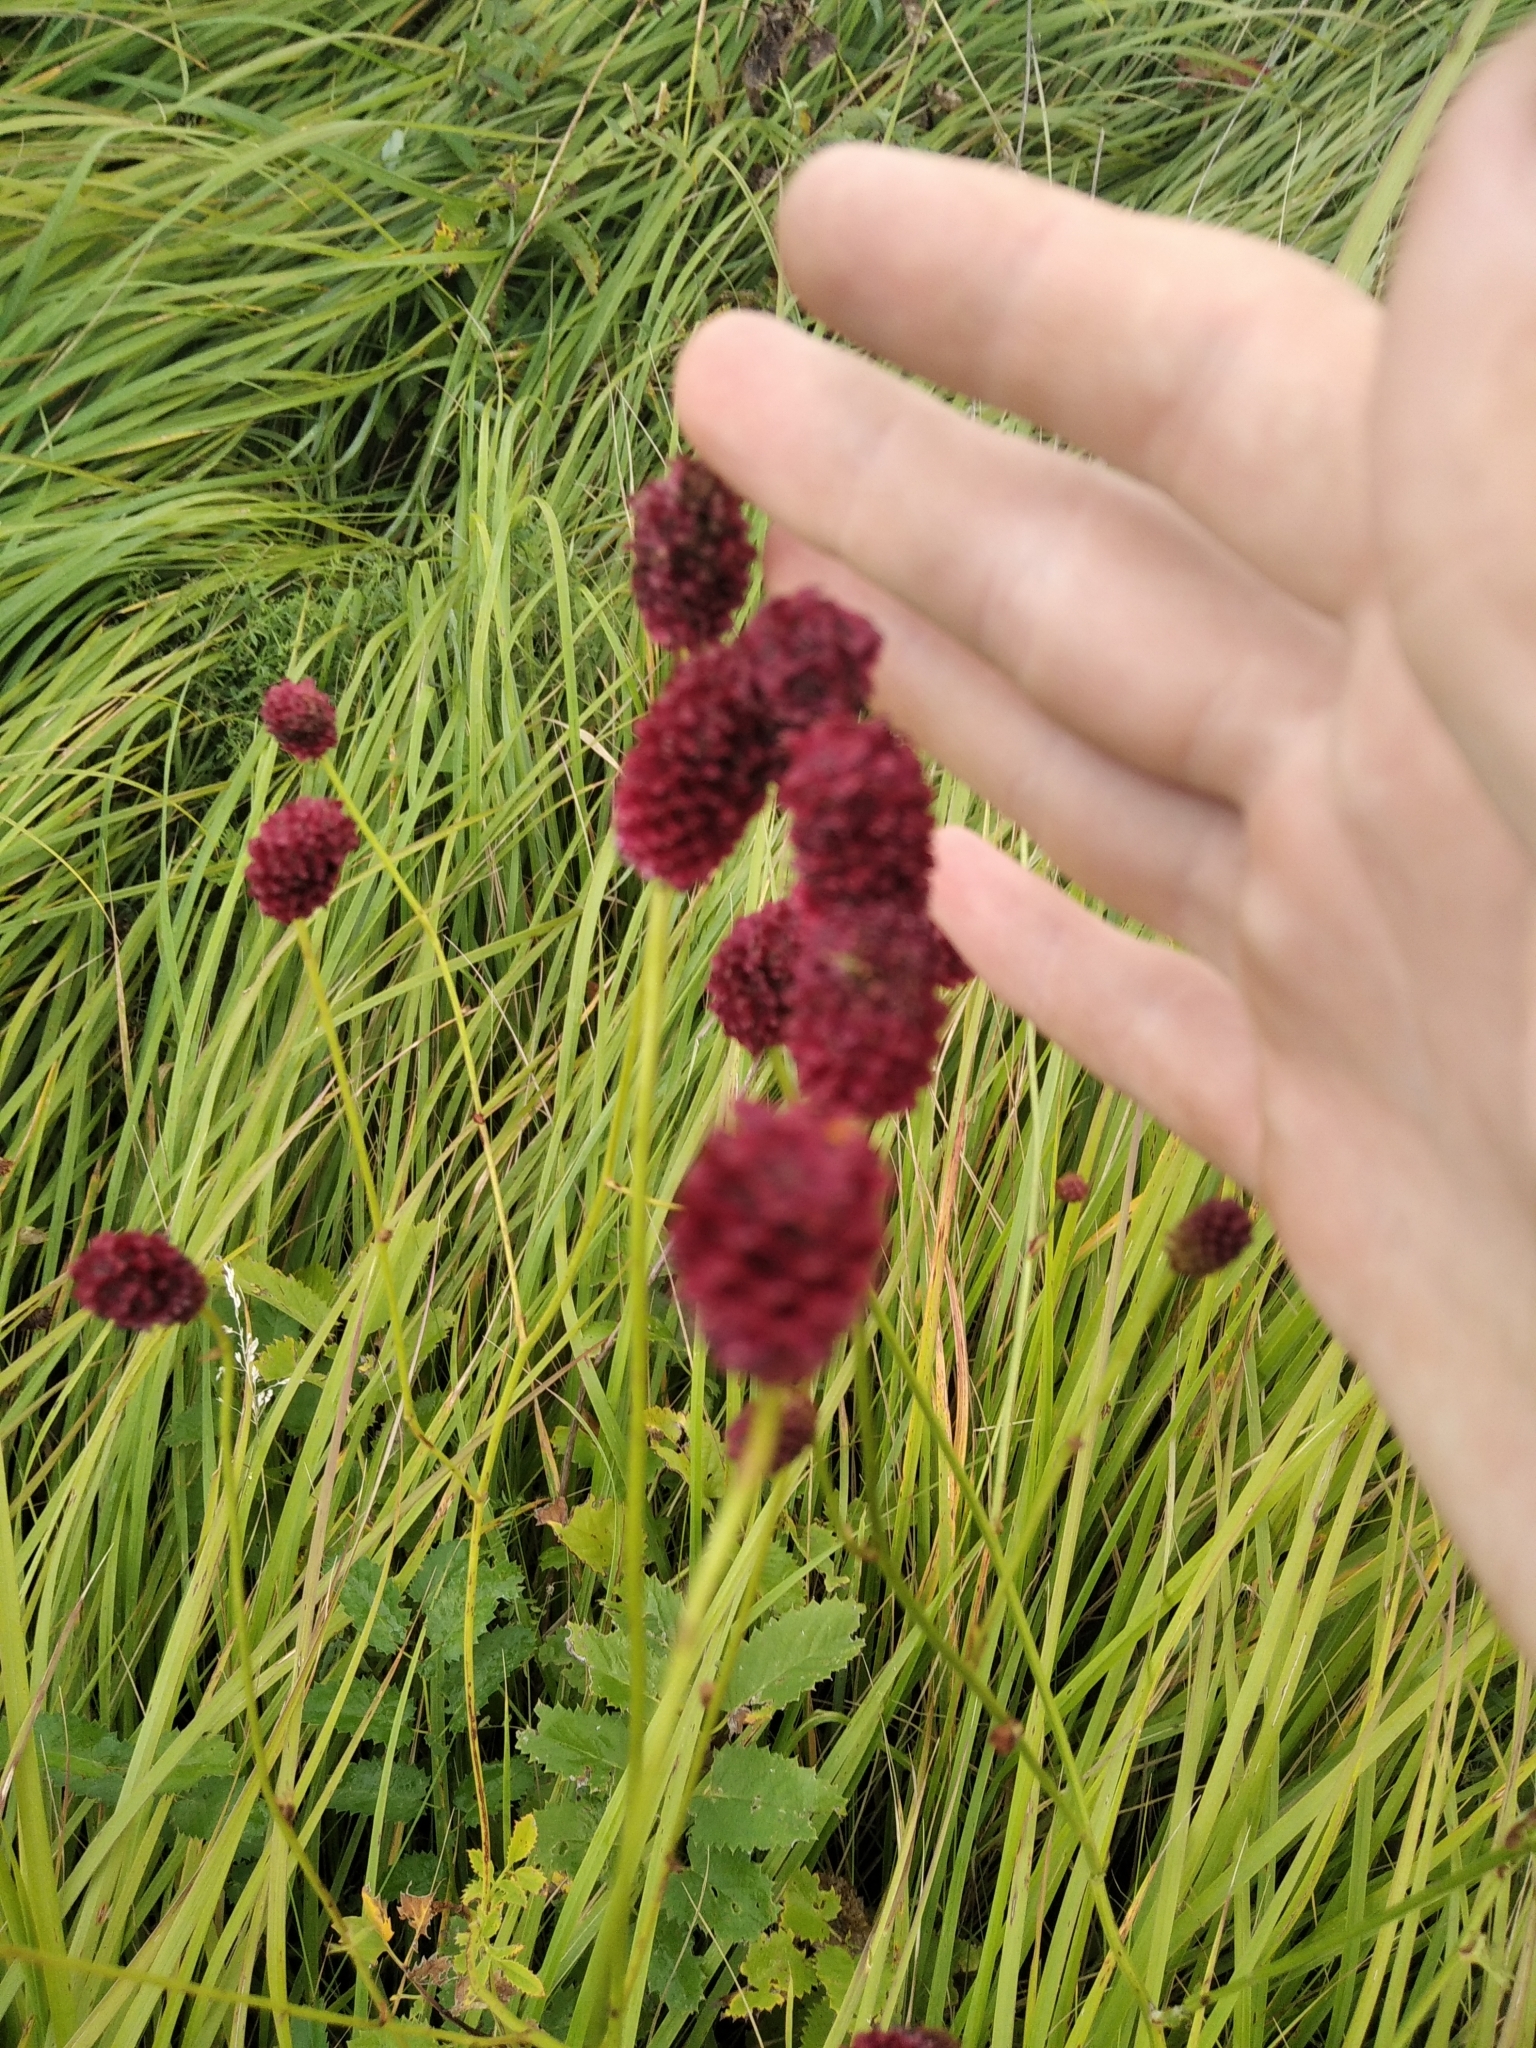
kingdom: Plantae
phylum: Tracheophyta
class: Magnoliopsida
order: Rosales
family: Rosaceae
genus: Sanguisorba
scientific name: Sanguisorba officinalis
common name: Great burnet
